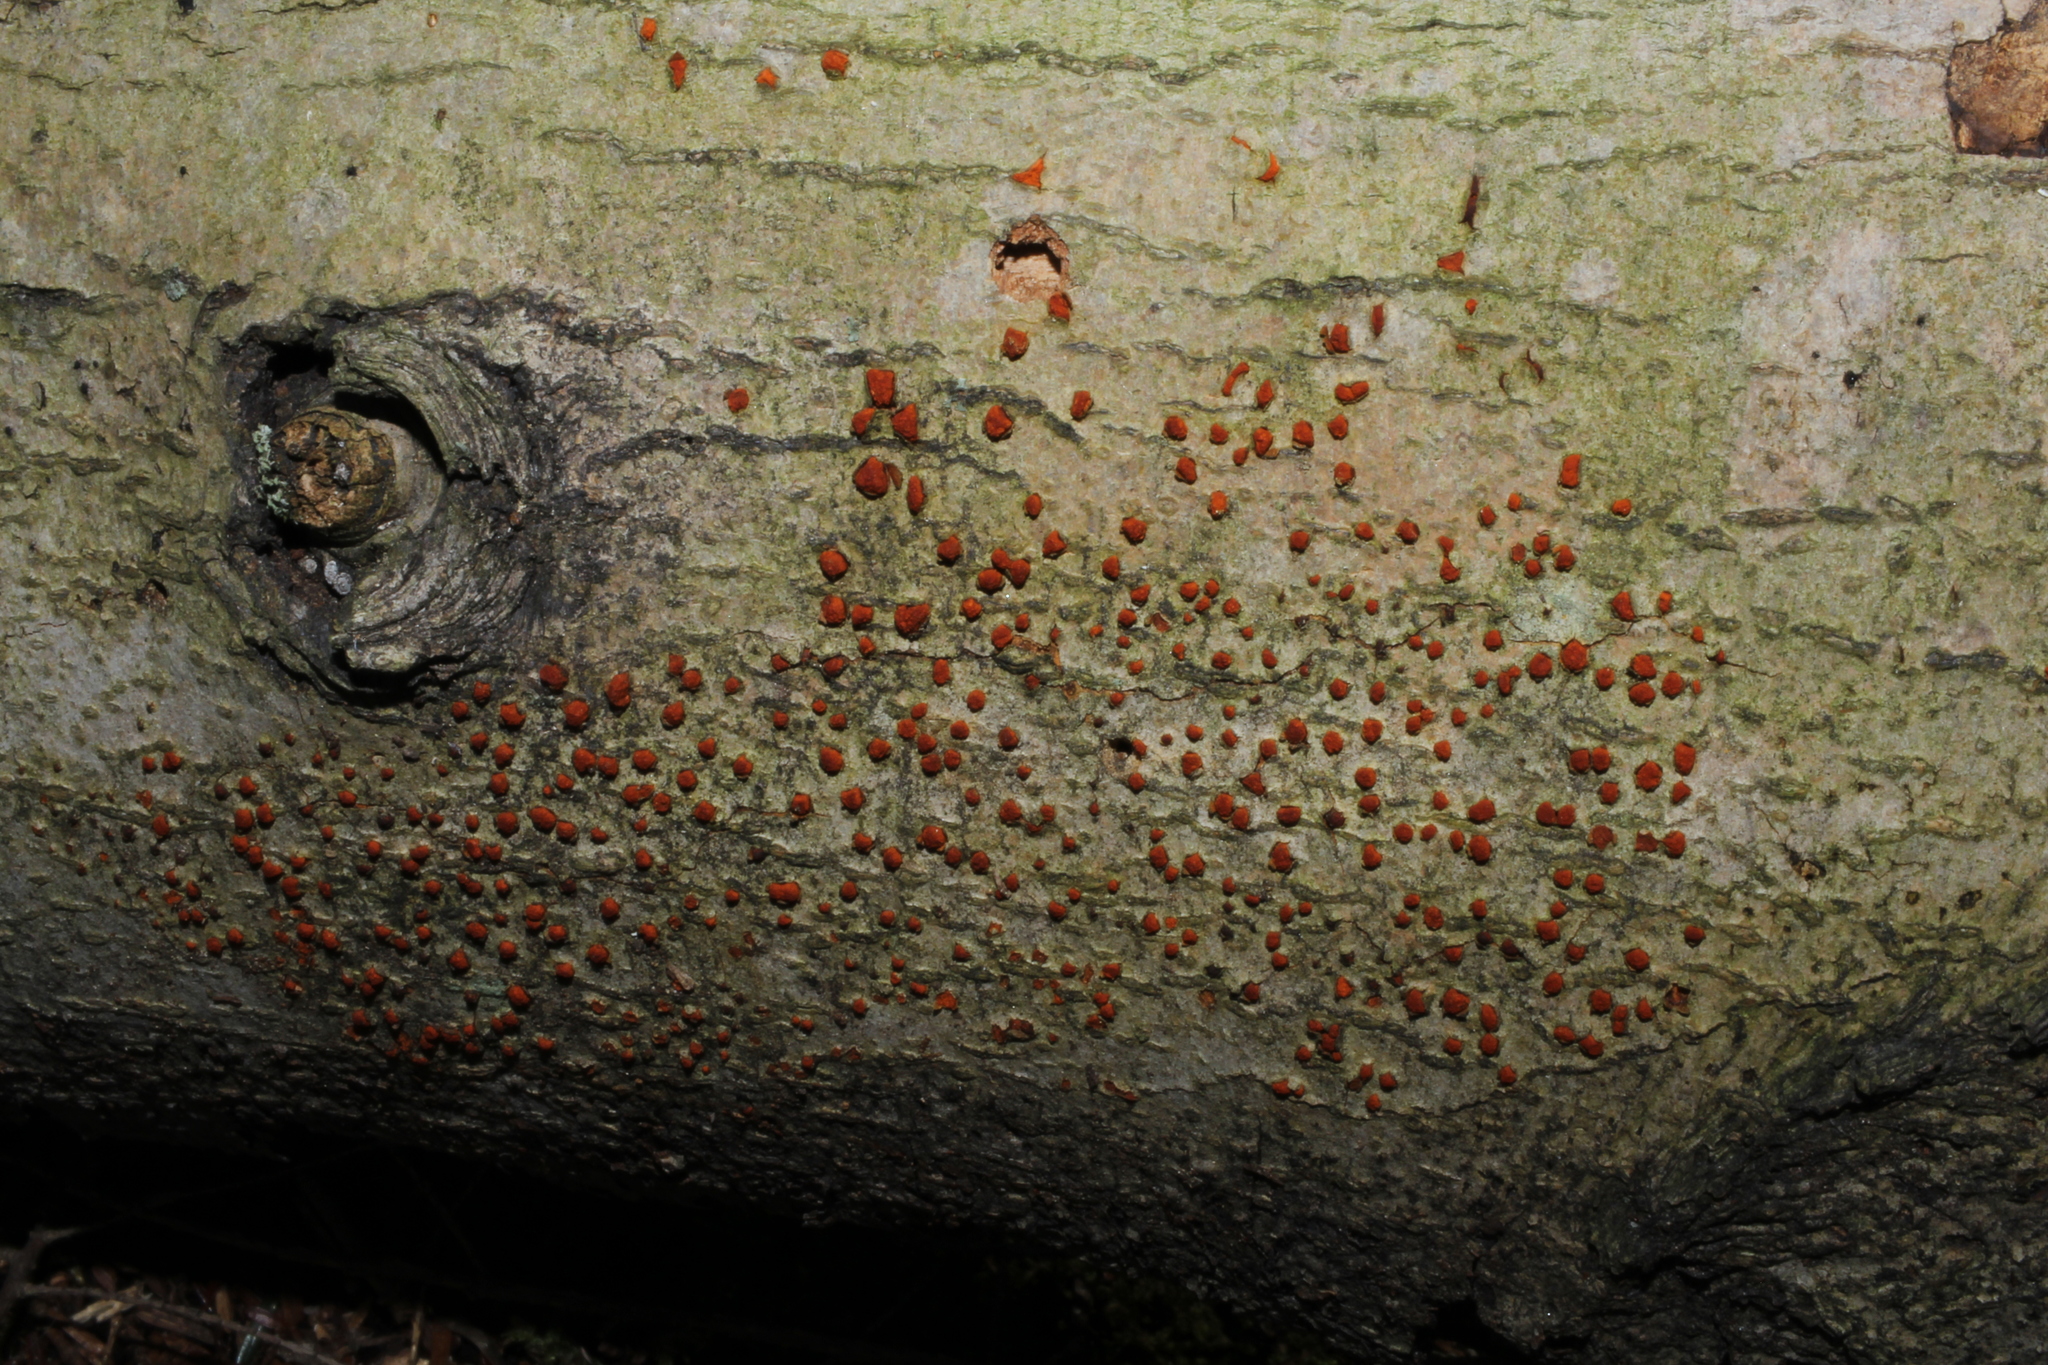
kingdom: Fungi
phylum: Ascomycota
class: Sordariomycetes
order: Diaporthales
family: Cryphonectriaceae
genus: Amphilogia
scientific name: Amphilogia gyrosa
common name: Orange hobnail canker
